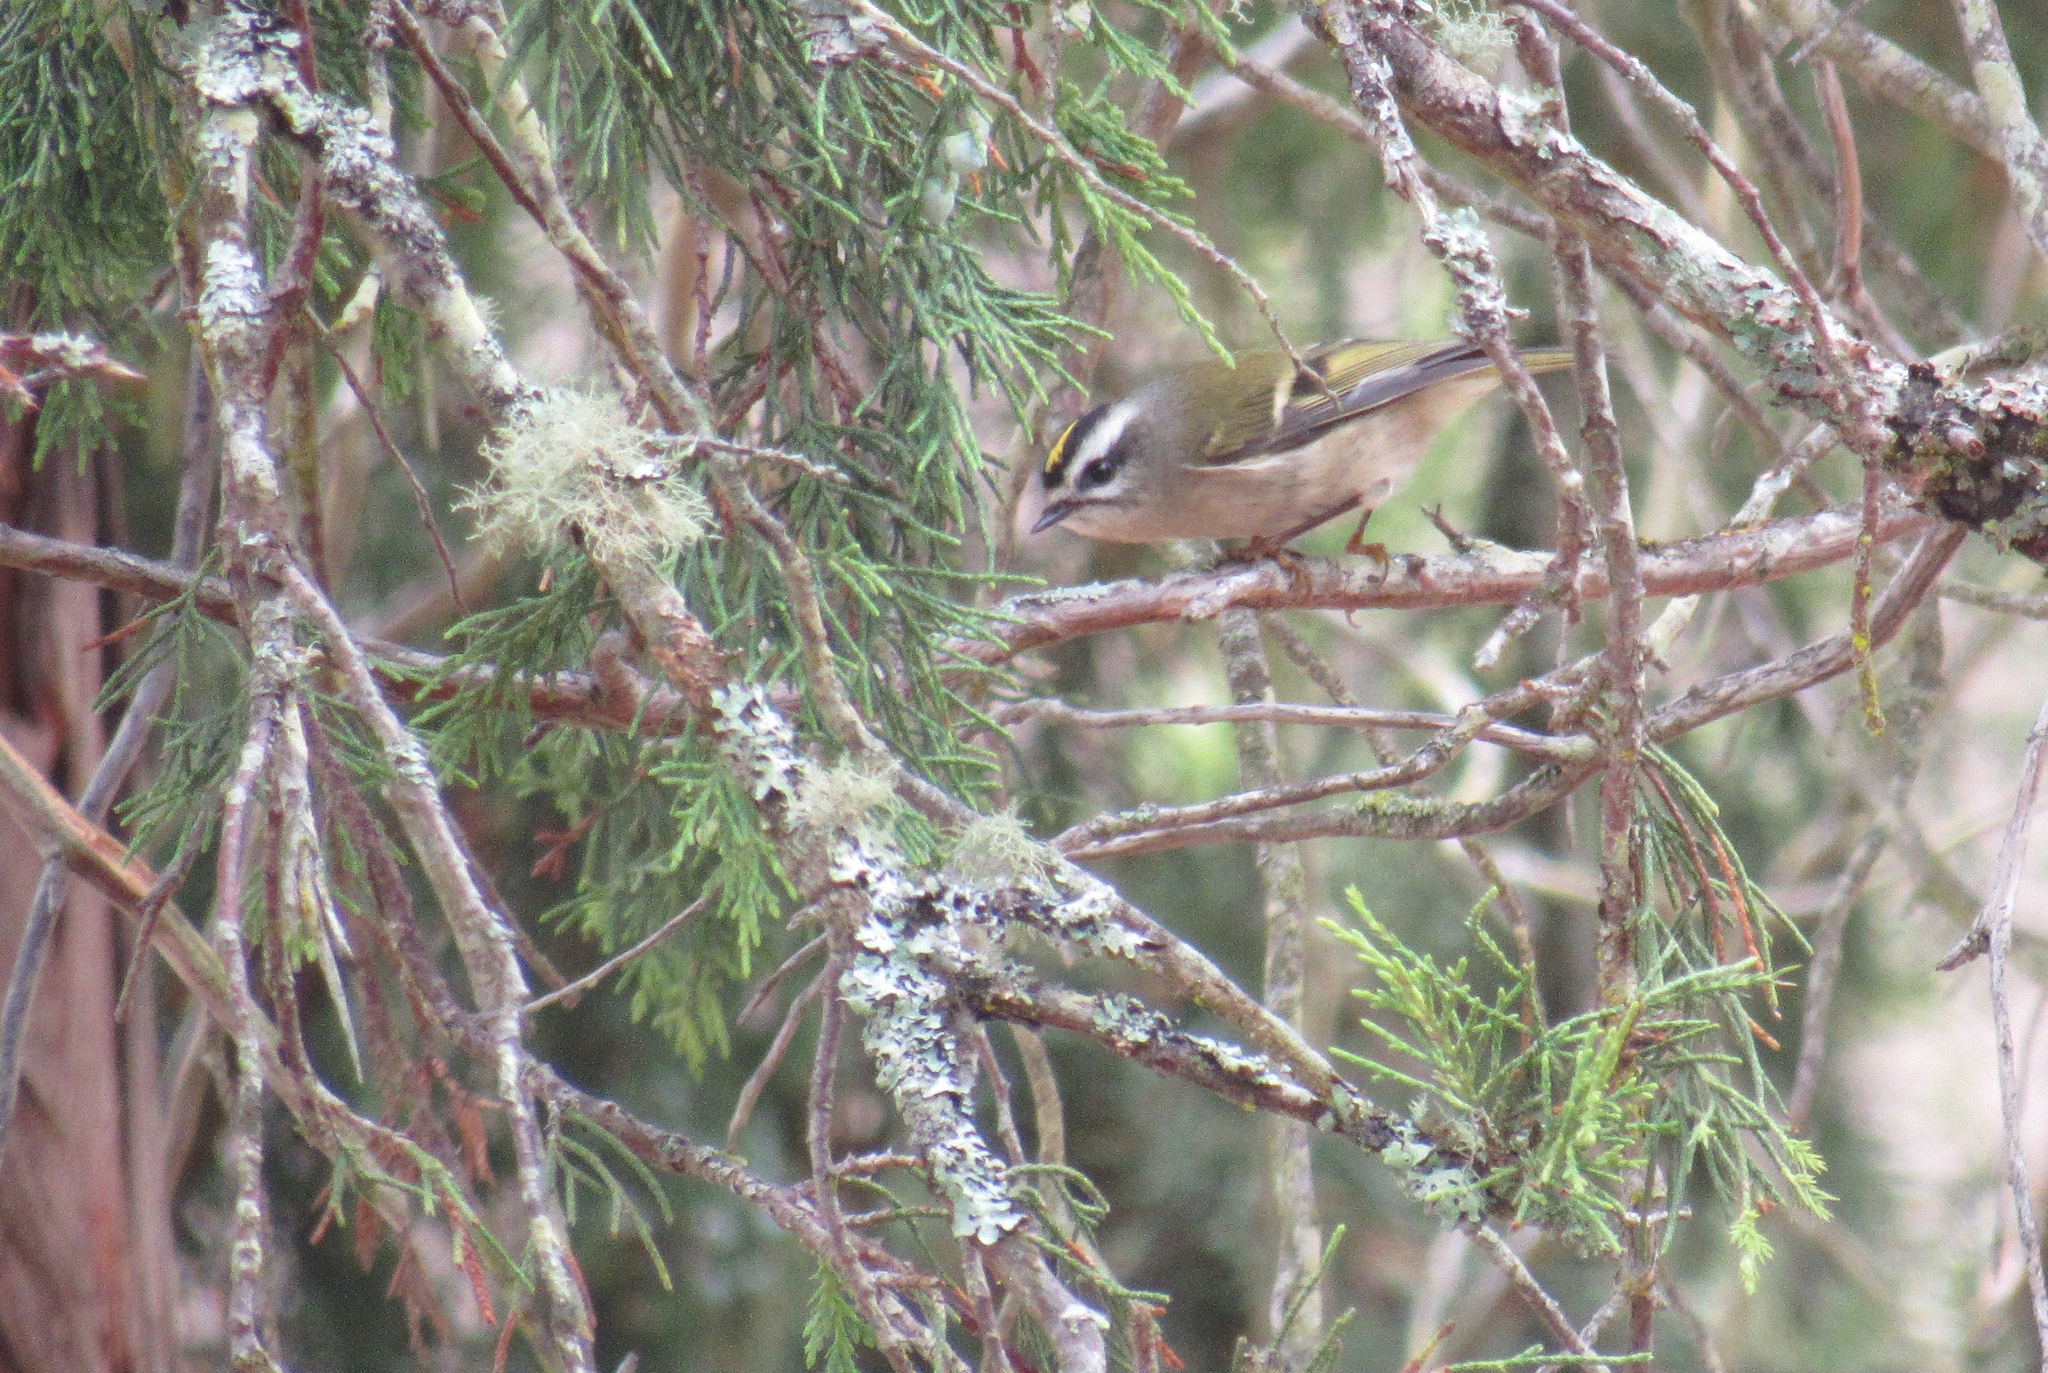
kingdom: Animalia
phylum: Chordata
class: Aves
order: Passeriformes
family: Regulidae
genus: Regulus
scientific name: Regulus satrapa
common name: Golden-crowned kinglet
